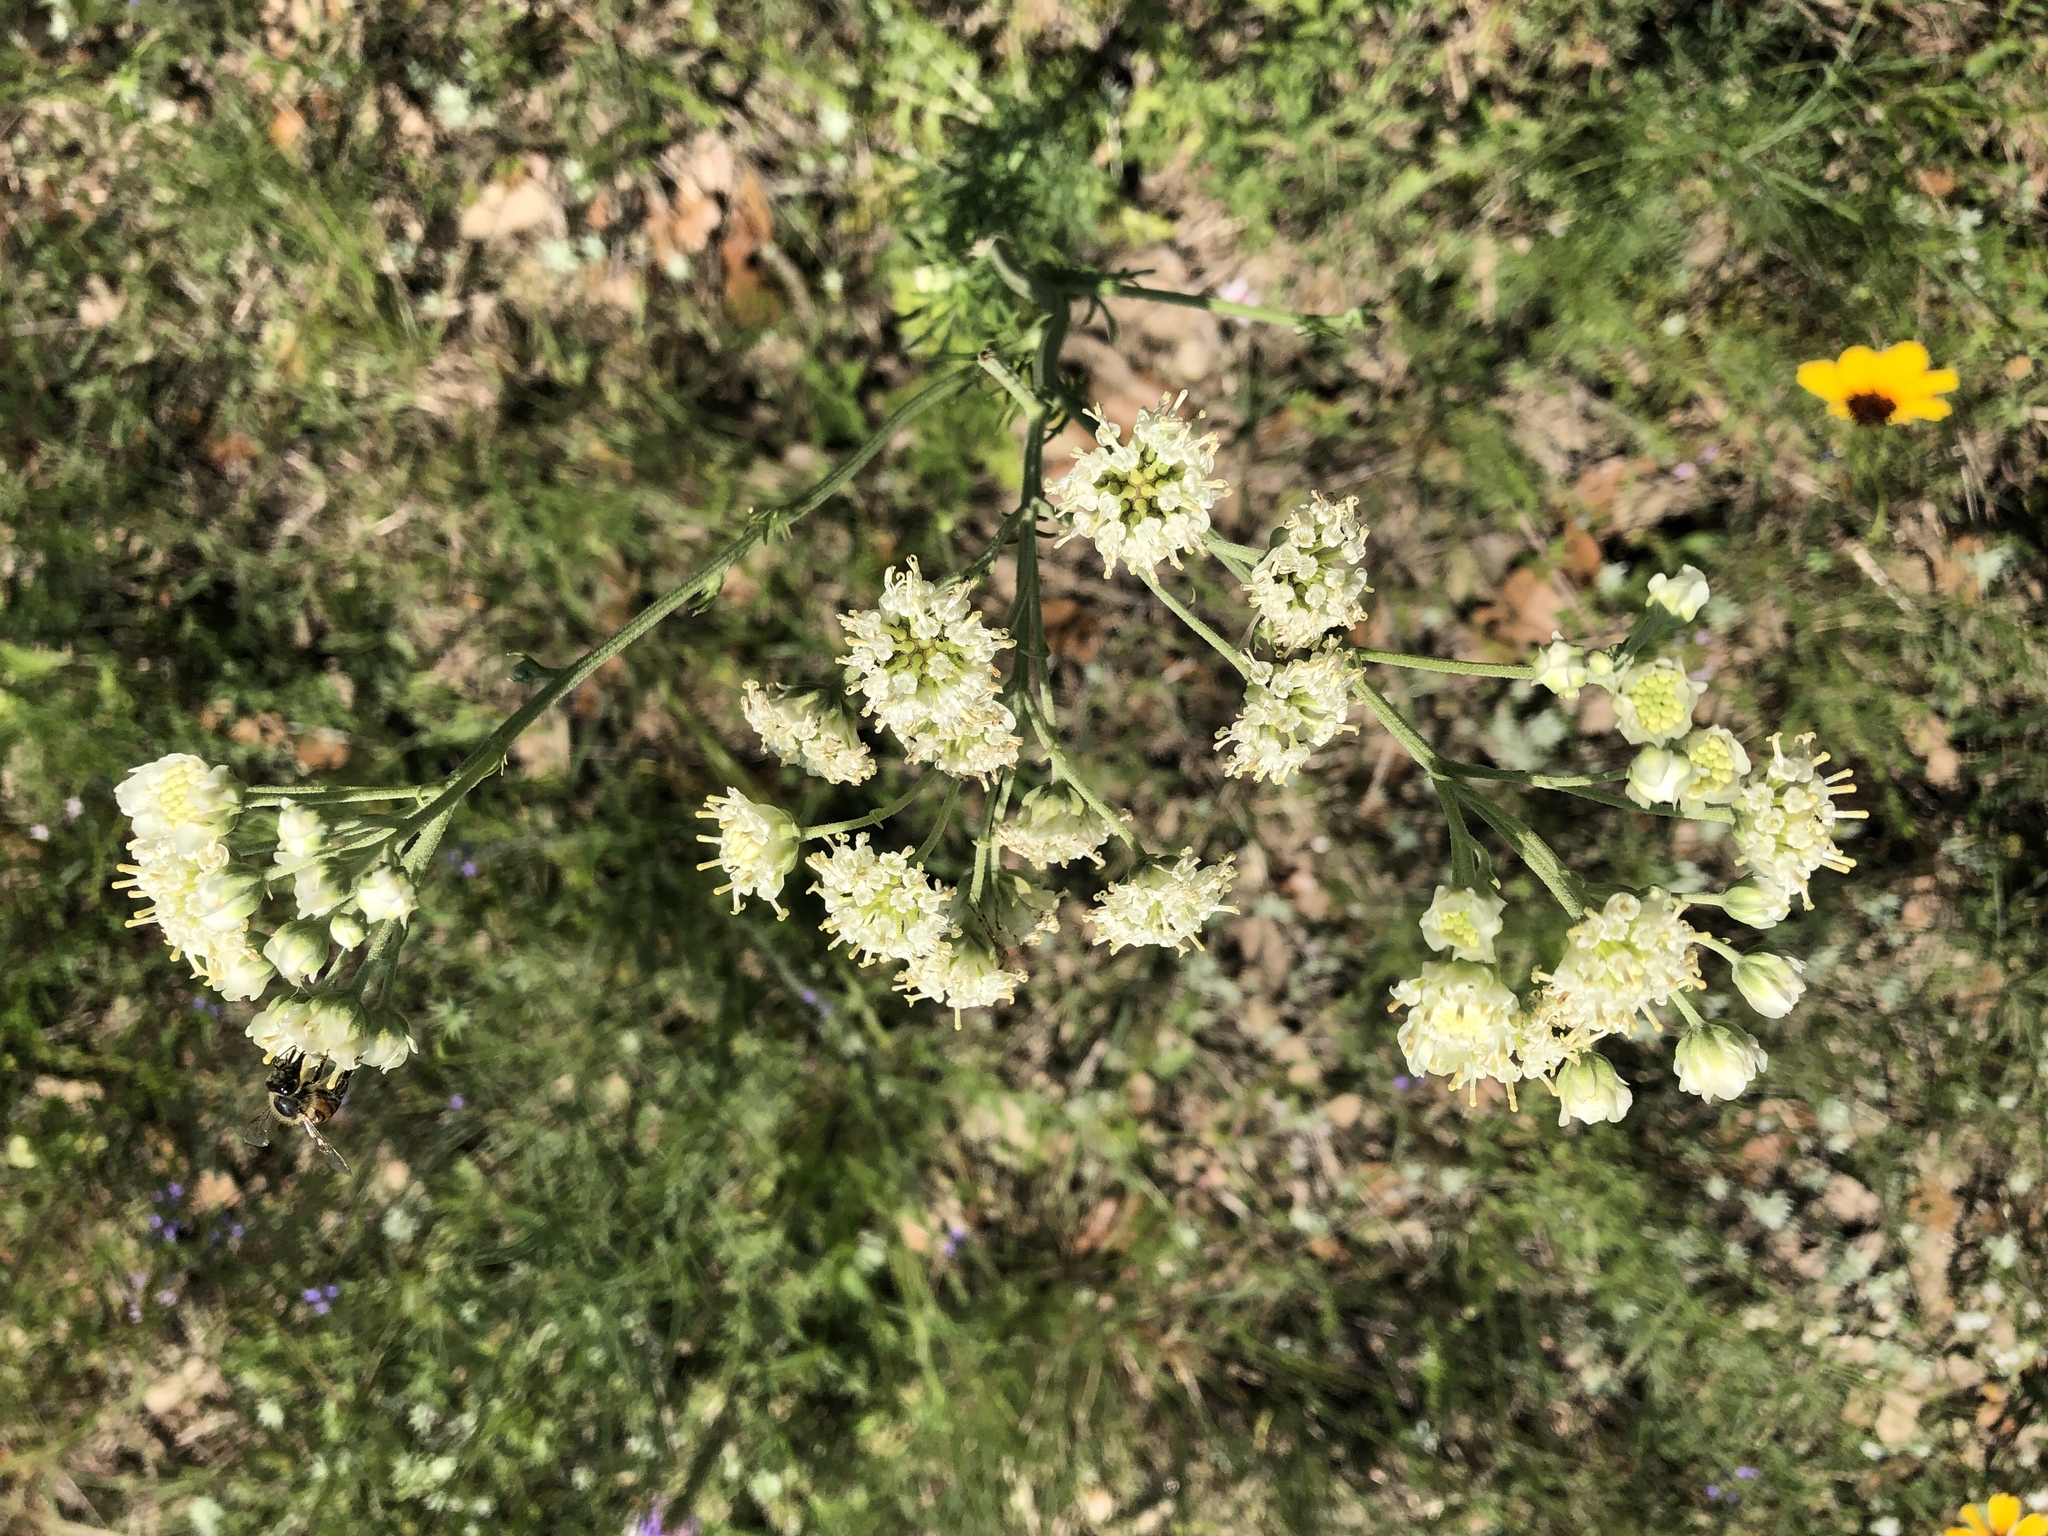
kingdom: Plantae
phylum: Tracheophyta
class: Magnoliopsida
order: Asterales
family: Asteraceae
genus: Hymenopappus
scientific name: Hymenopappus scabiosaeus
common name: Carolina woollywhite
